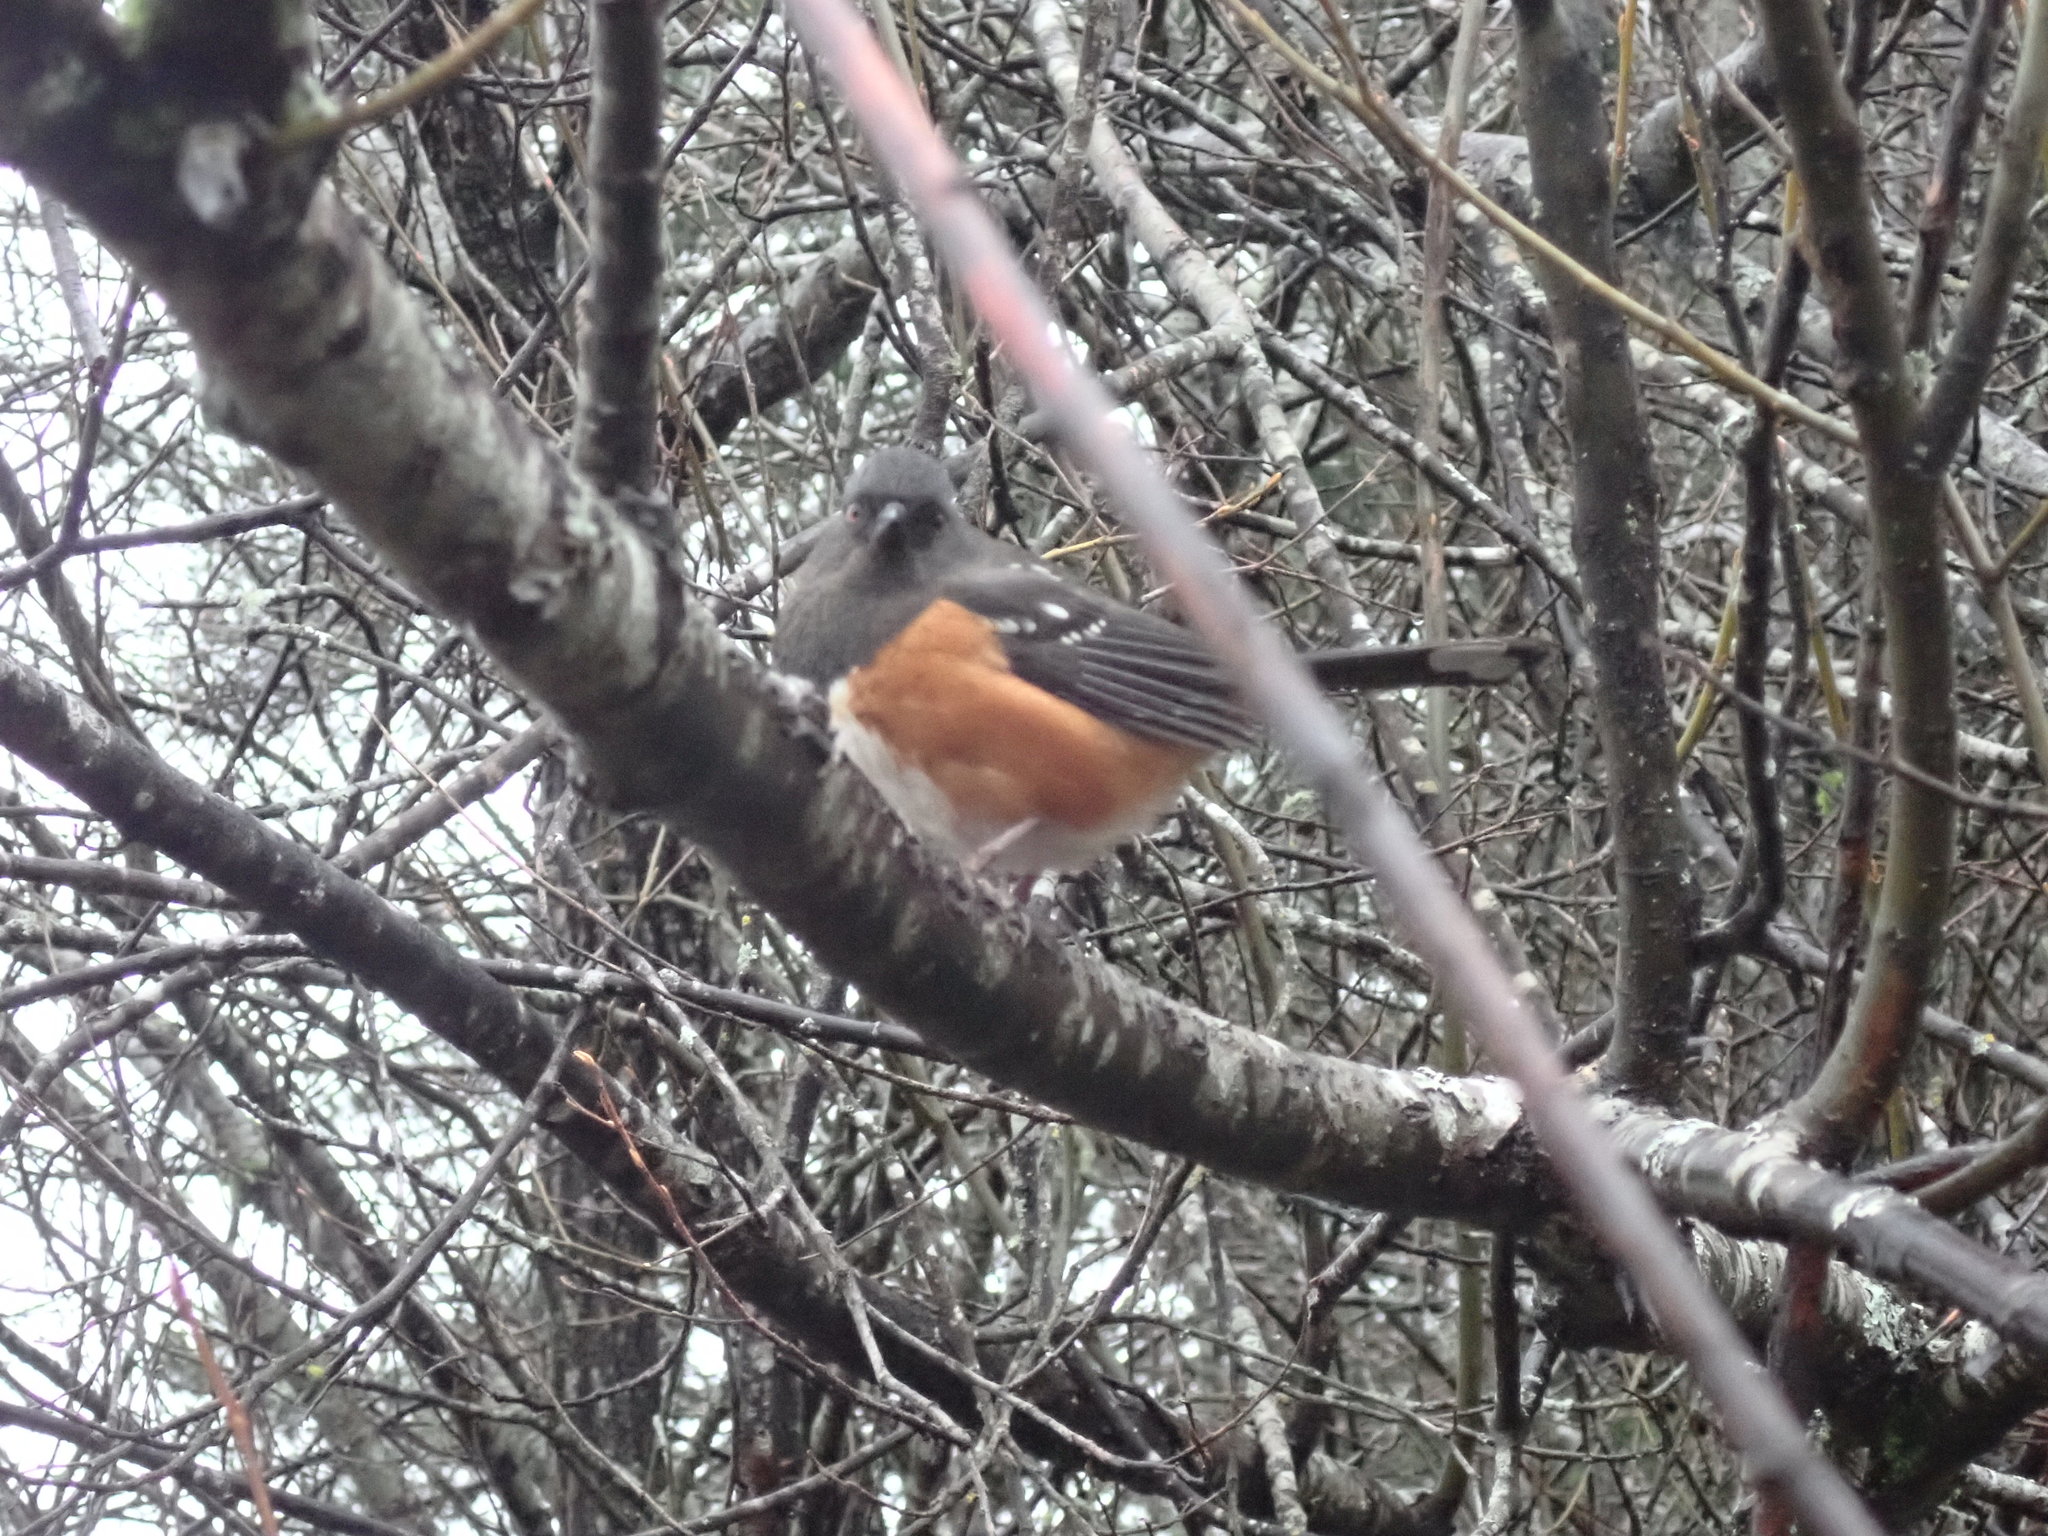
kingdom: Animalia
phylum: Chordata
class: Aves
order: Passeriformes
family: Passerellidae
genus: Pipilo
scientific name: Pipilo maculatus
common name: Spotted towhee
